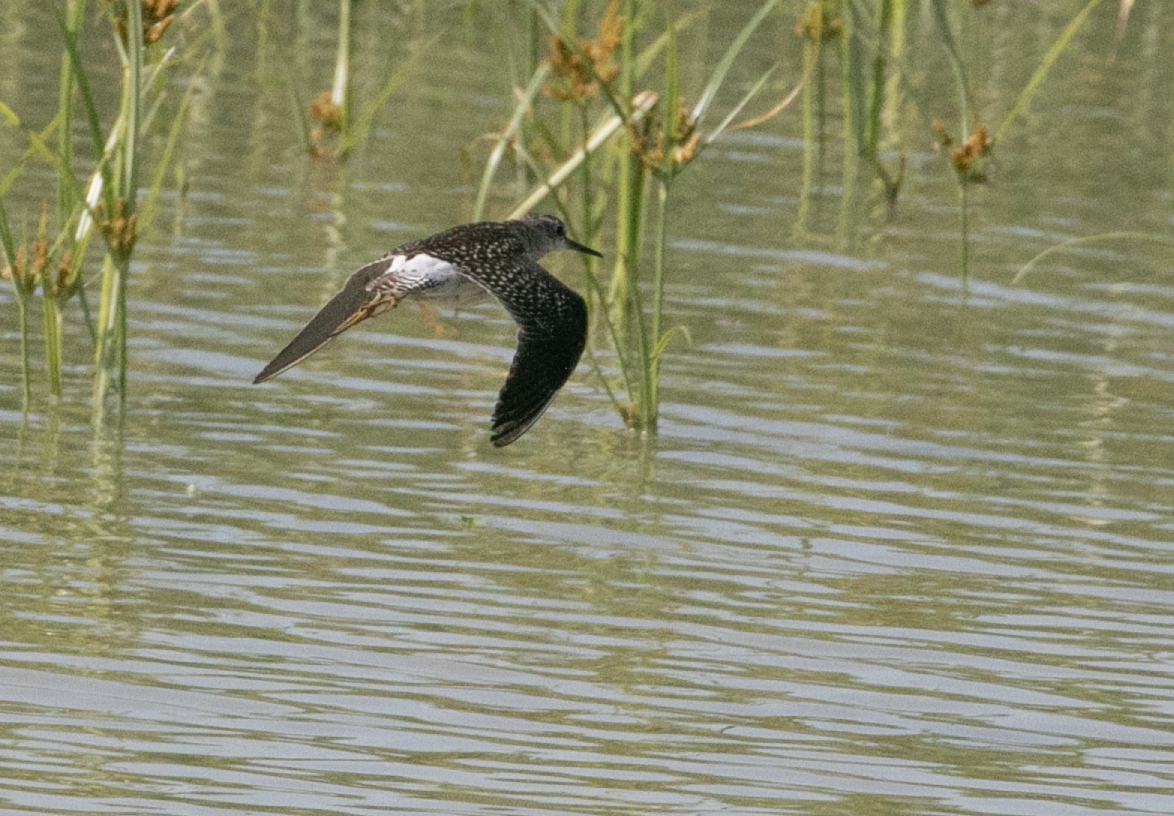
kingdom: Animalia
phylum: Chordata
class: Aves
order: Charadriiformes
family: Scolopacidae
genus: Tringa
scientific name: Tringa glareola
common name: Wood sandpiper
